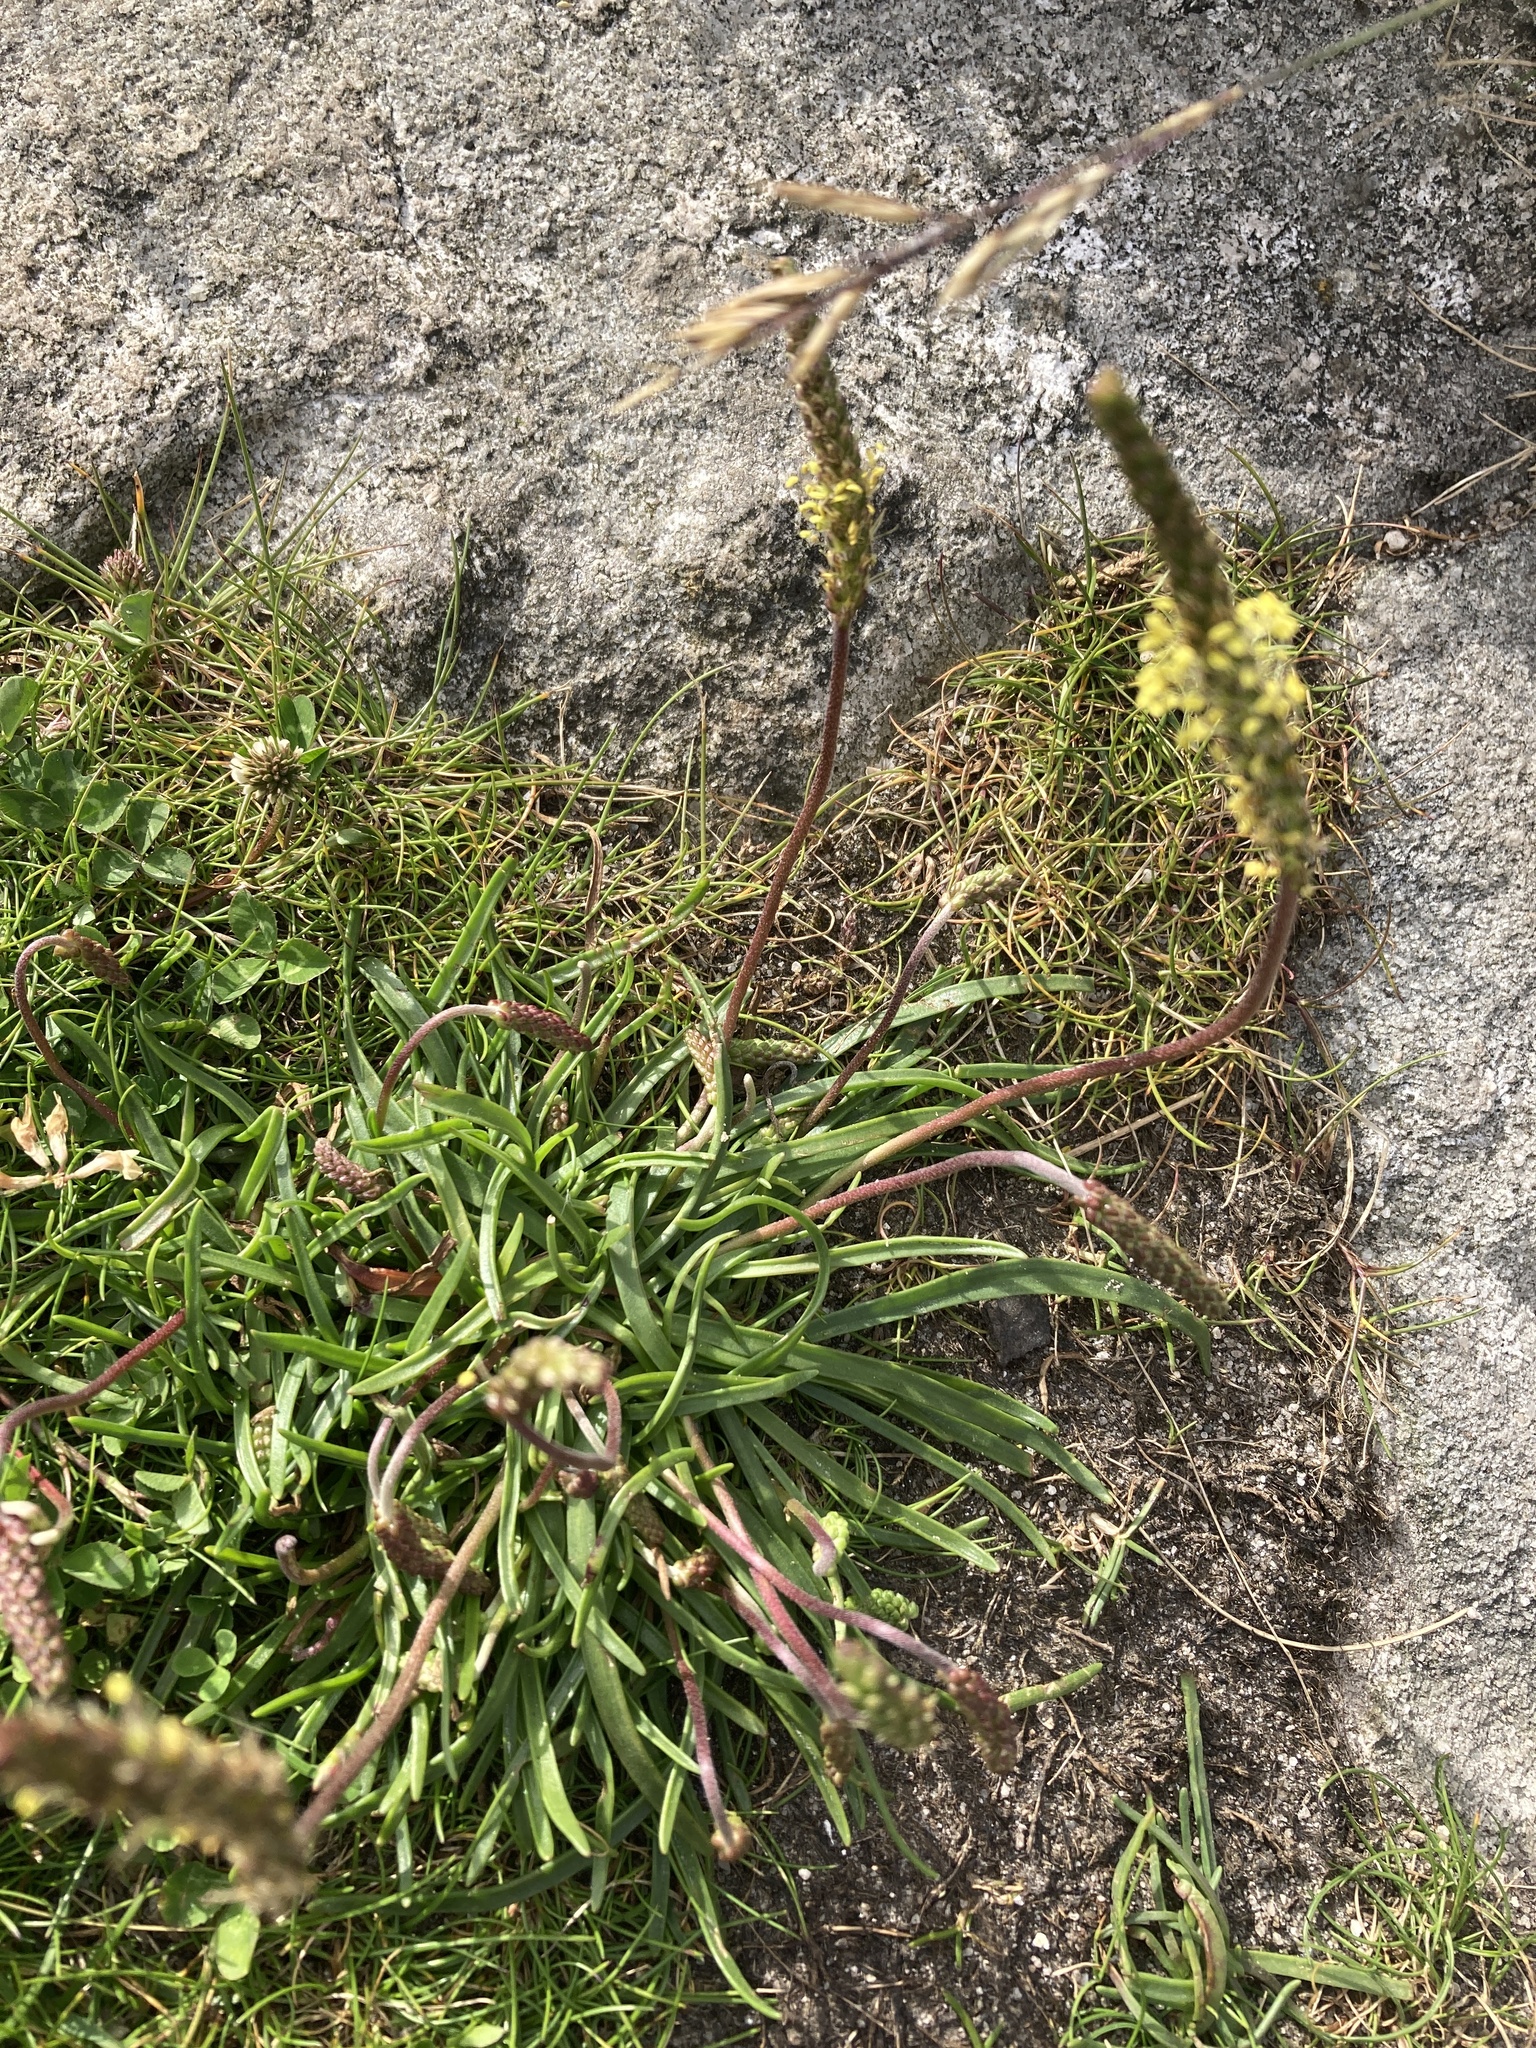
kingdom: Plantae
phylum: Tracheophyta
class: Magnoliopsida
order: Lamiales
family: Plantaginaceae
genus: Plantago
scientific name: Plantago maritima
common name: Sea plantain
